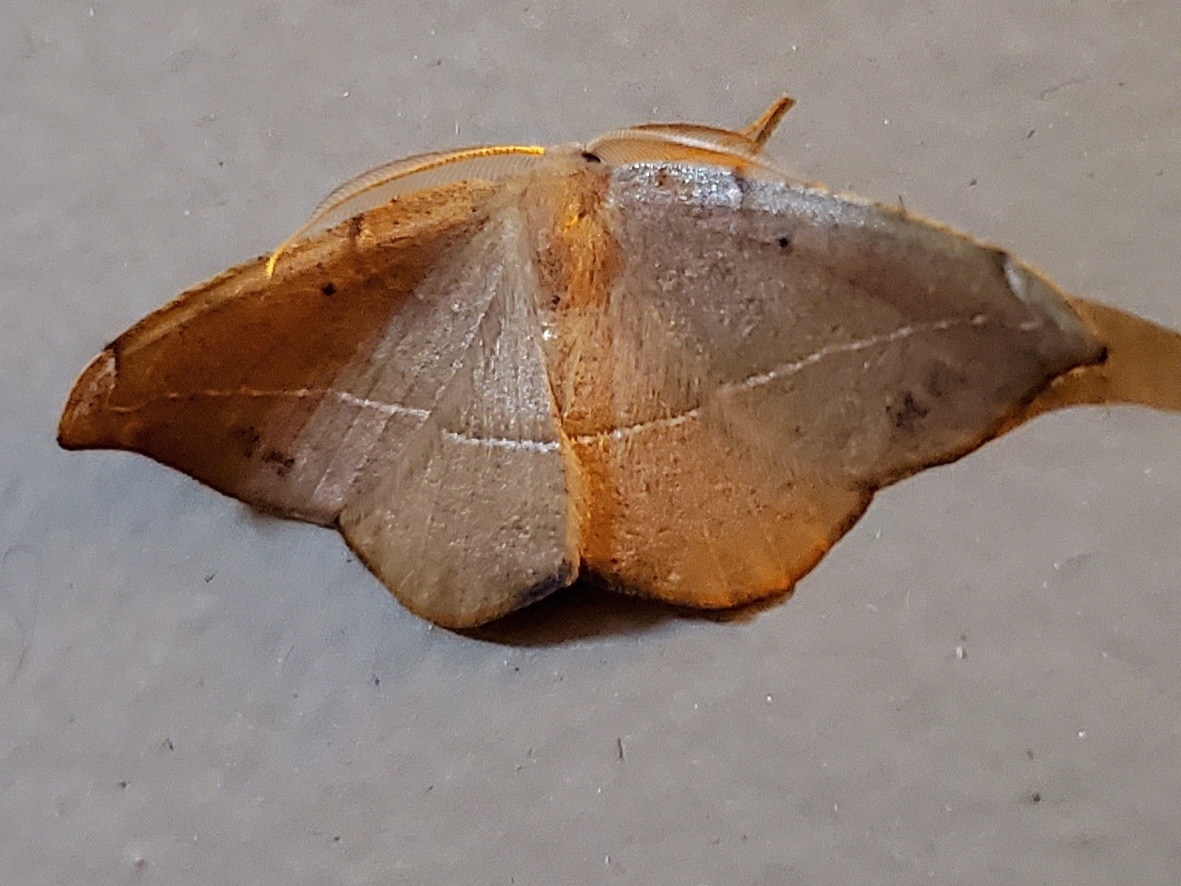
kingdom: Animalia
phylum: Arthropoda
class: Insecta
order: Lepidoptera
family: Geometridae
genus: Patalene
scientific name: Patalene olyzonaria
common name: Juniper geometer moth
